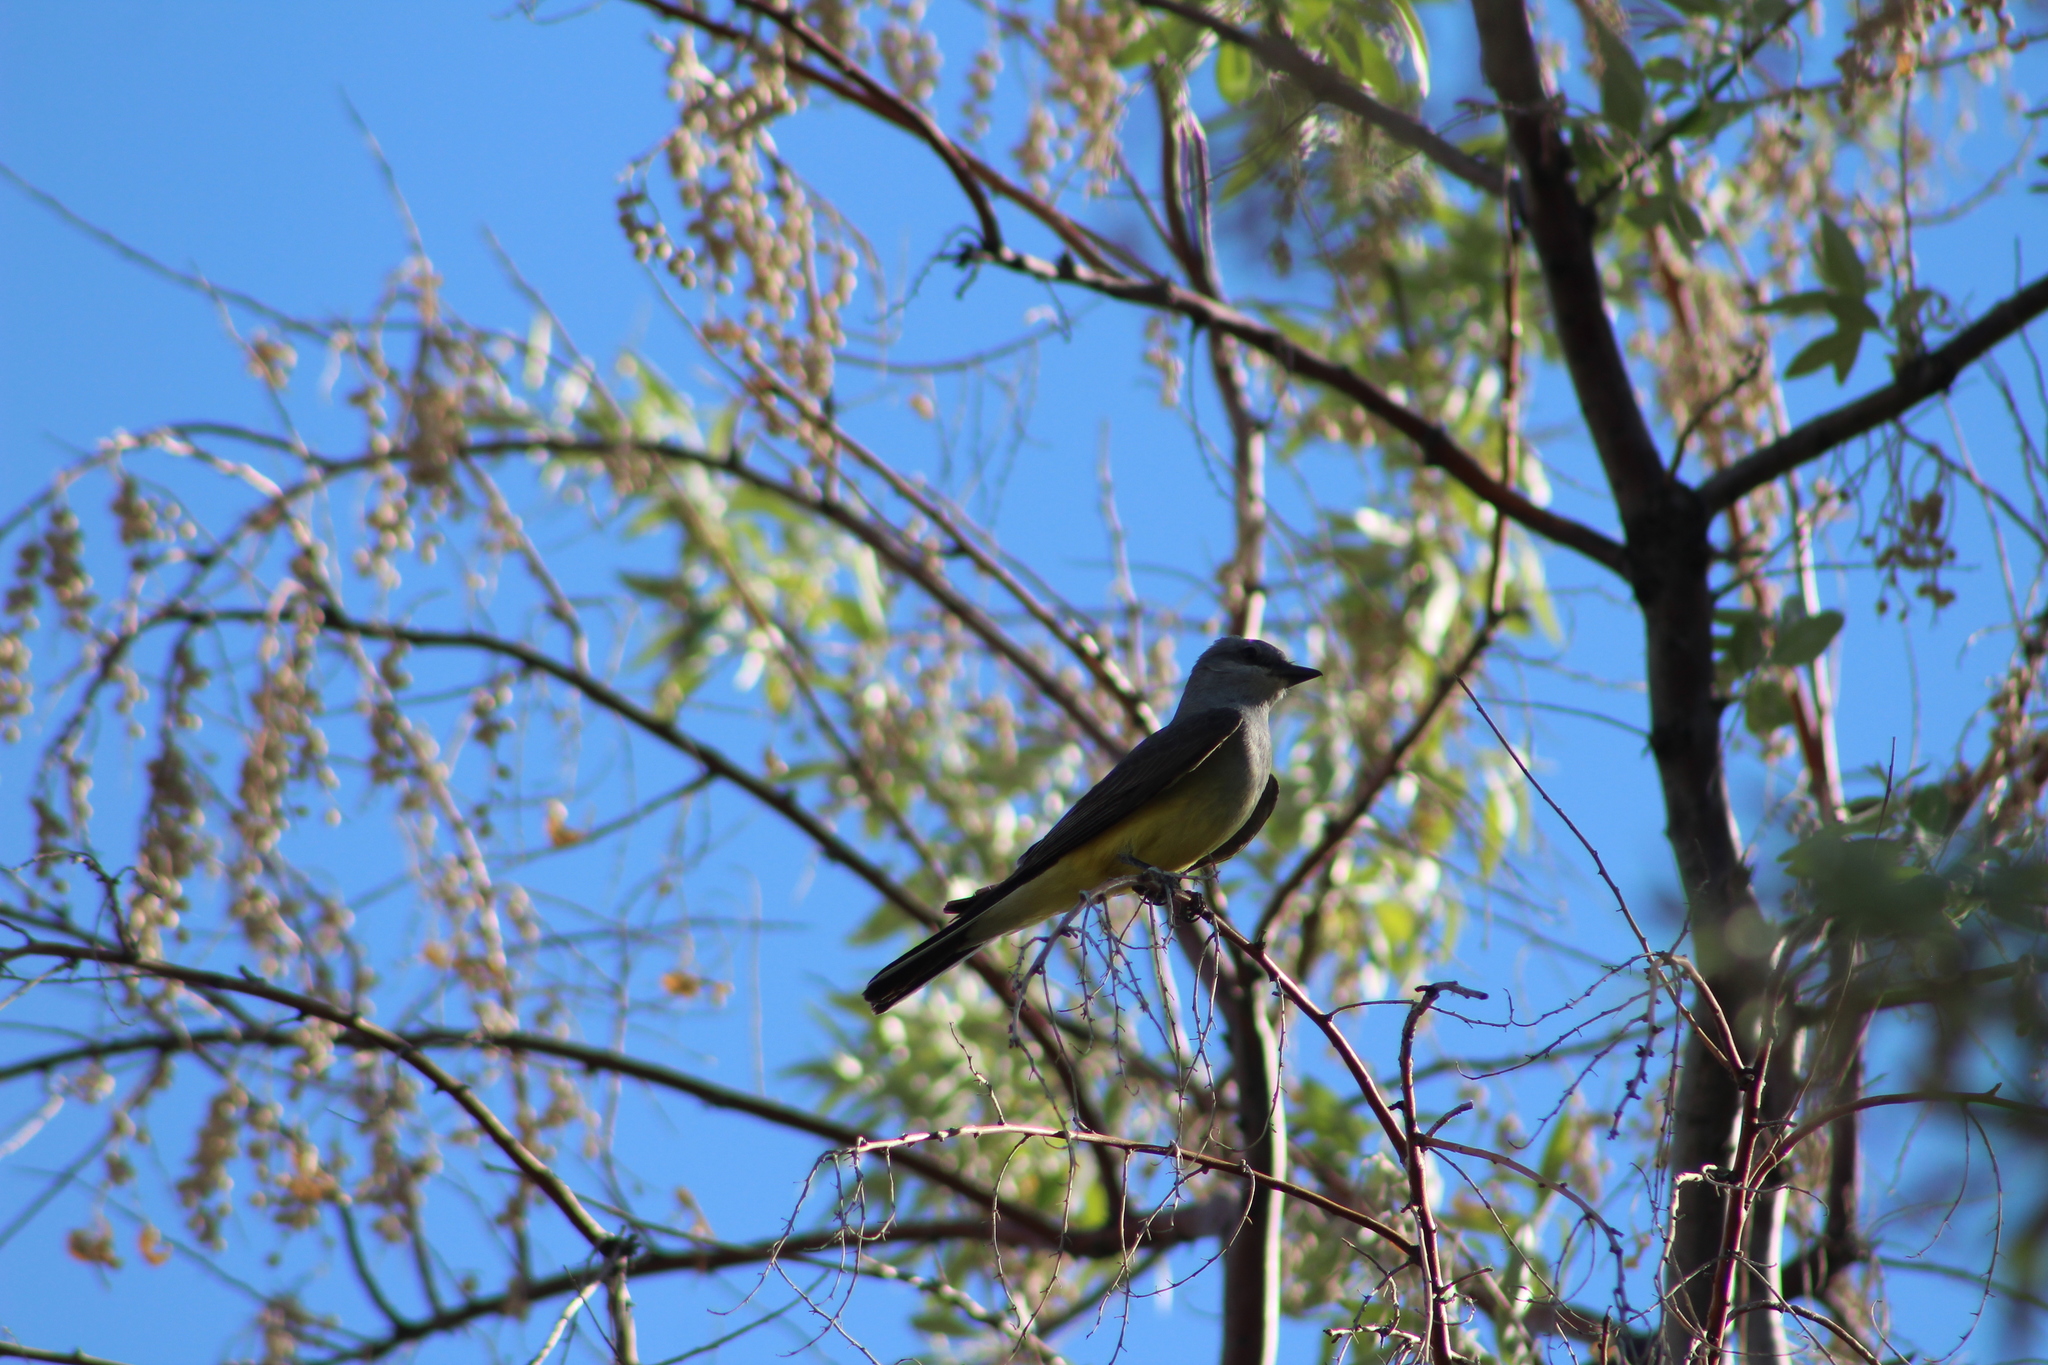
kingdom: Animalia
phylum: Chordata
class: Aves
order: Passeriformes
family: Tyrannidae
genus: Tyrannus
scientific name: Tyrannus verticalis
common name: Western kingbird
